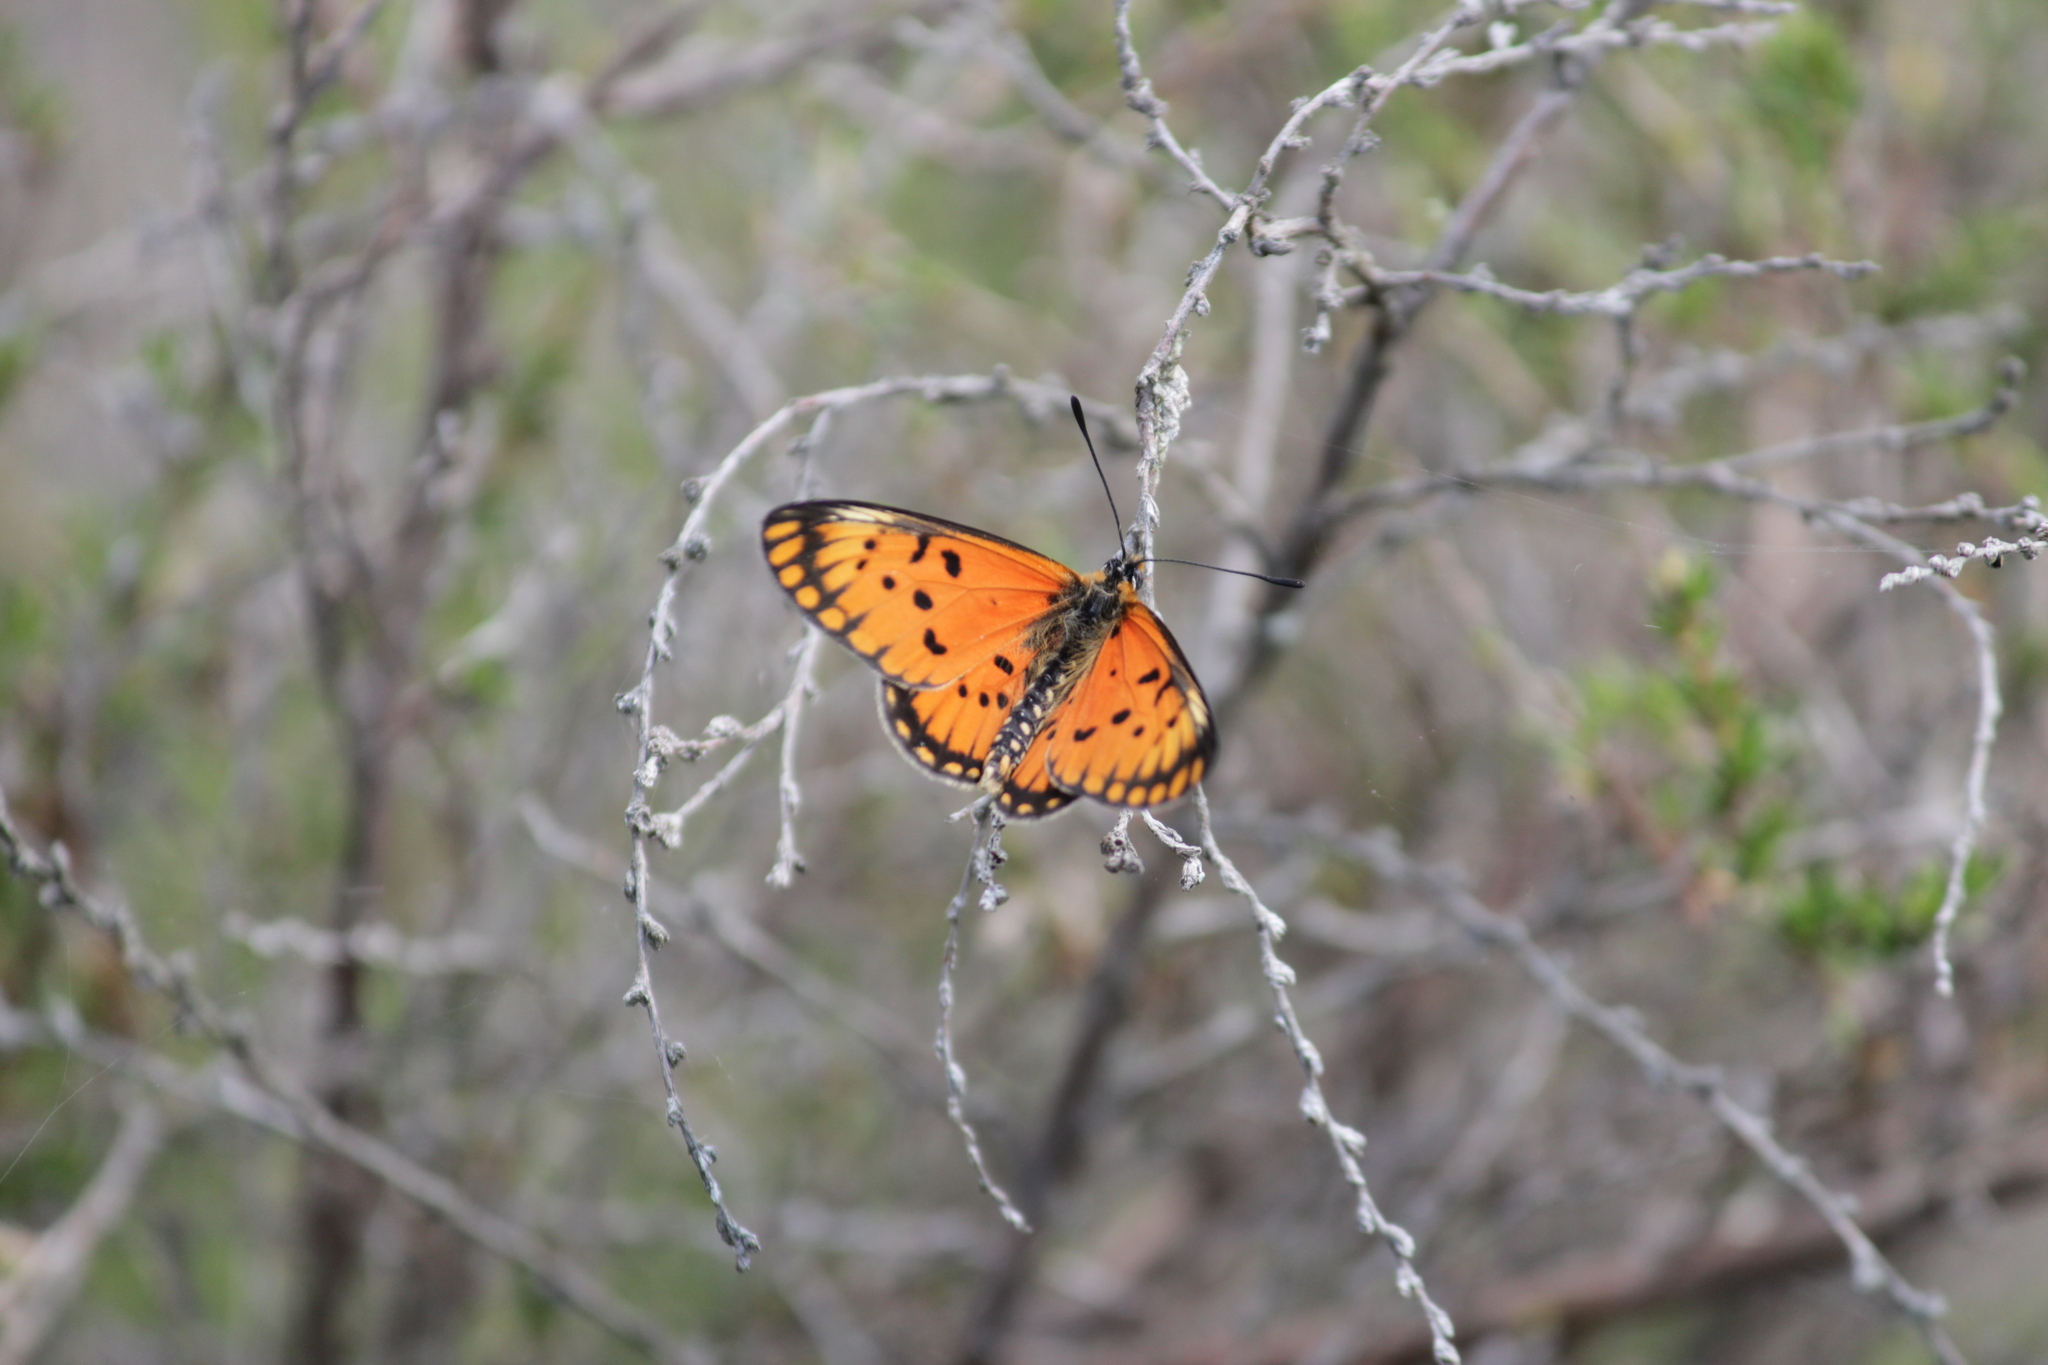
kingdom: Animalia
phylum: Arthropoda
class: Insecta
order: Lepidoptera
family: Nymphalidae
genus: Acraea
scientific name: Acraea anacreon
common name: Large orange acraea
